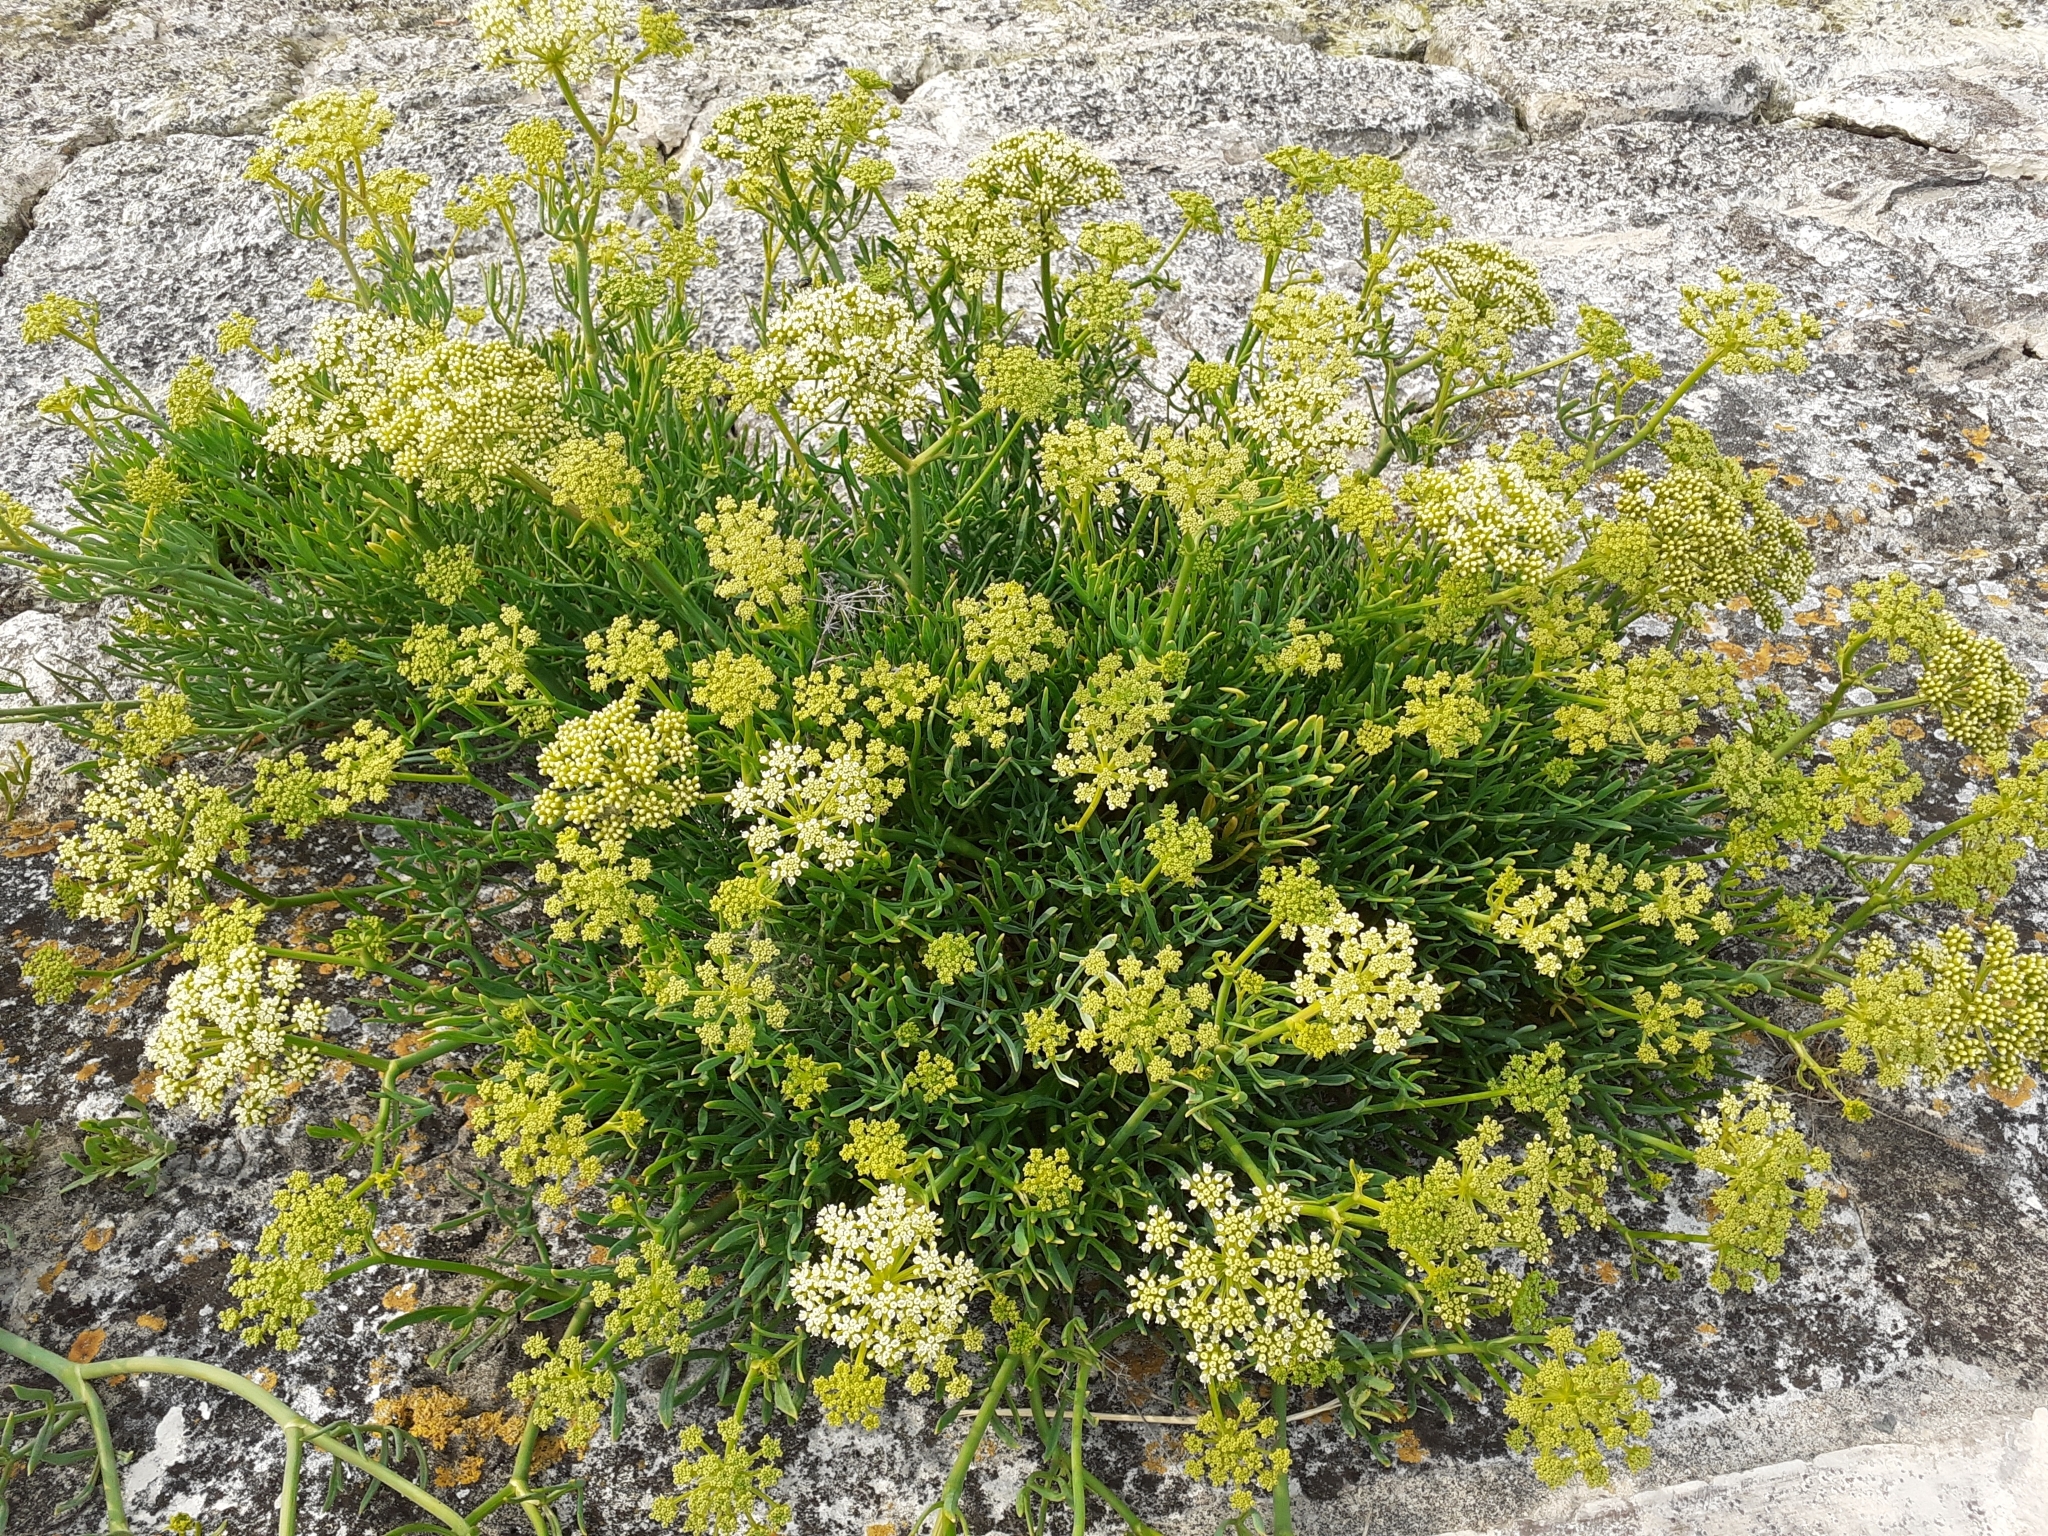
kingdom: Plantae
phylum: Tracheophyta
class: Magnoliopsida
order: Apiales
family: Apiaceae
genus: Crithmum
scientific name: Crithmum maritimum
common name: Rock samphire
